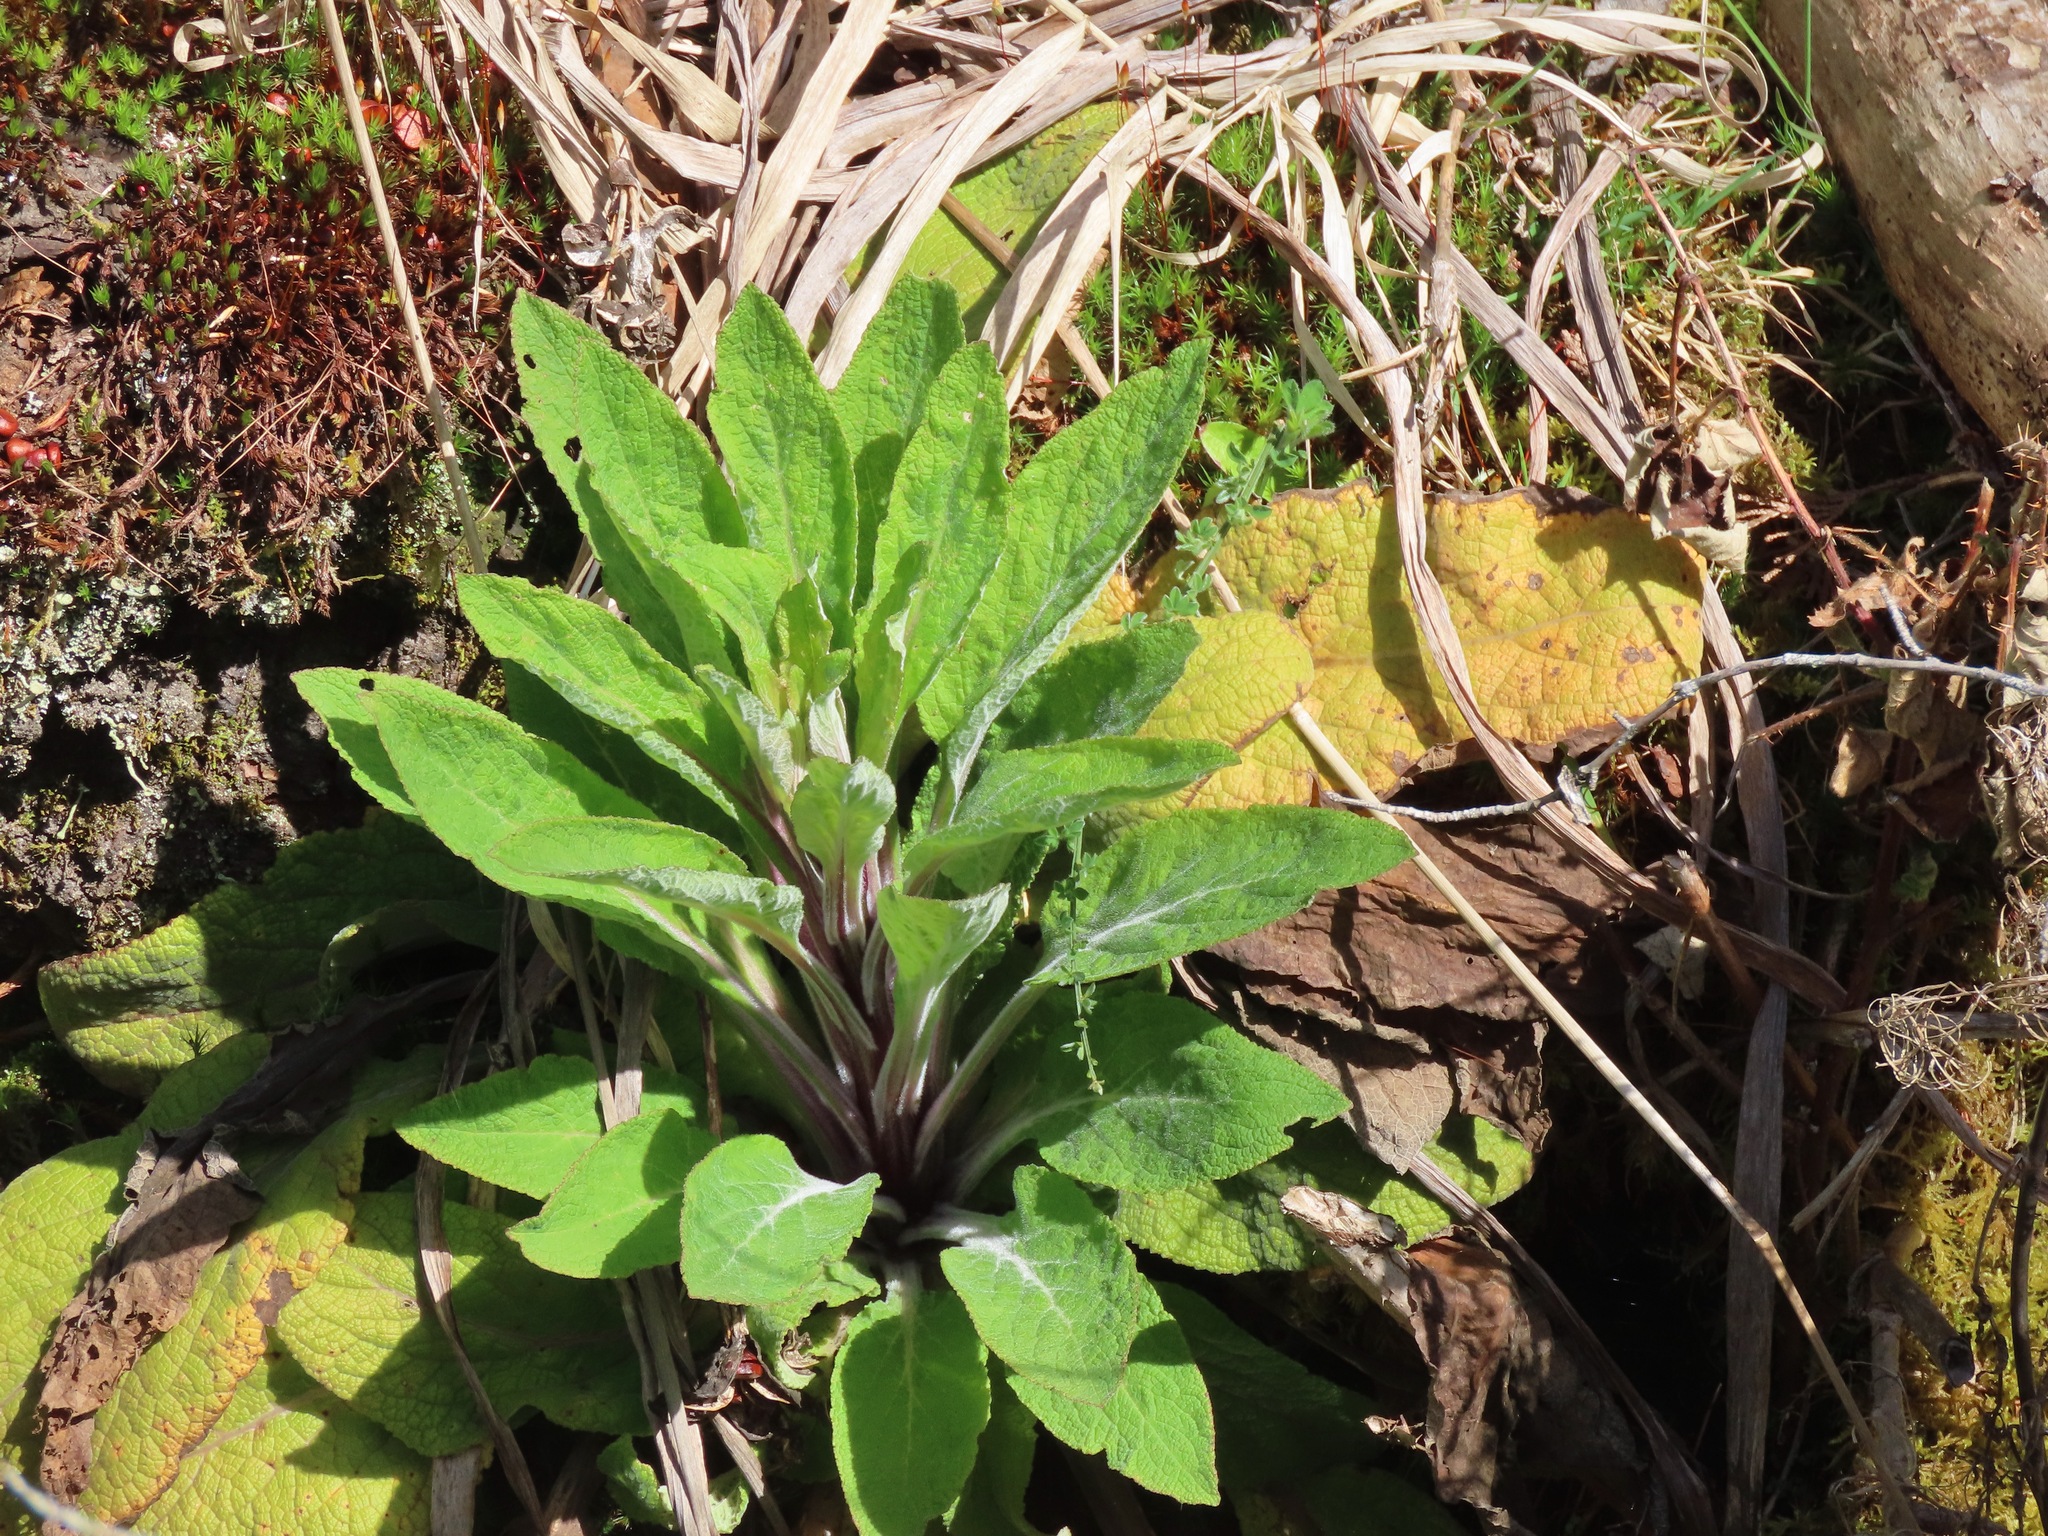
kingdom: Plantae
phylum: Tracheophyta
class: Magnoliopsida
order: Lamiales
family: Plantaginaceae
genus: Digitalis
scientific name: Digitalis purpurea
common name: Foxglove
